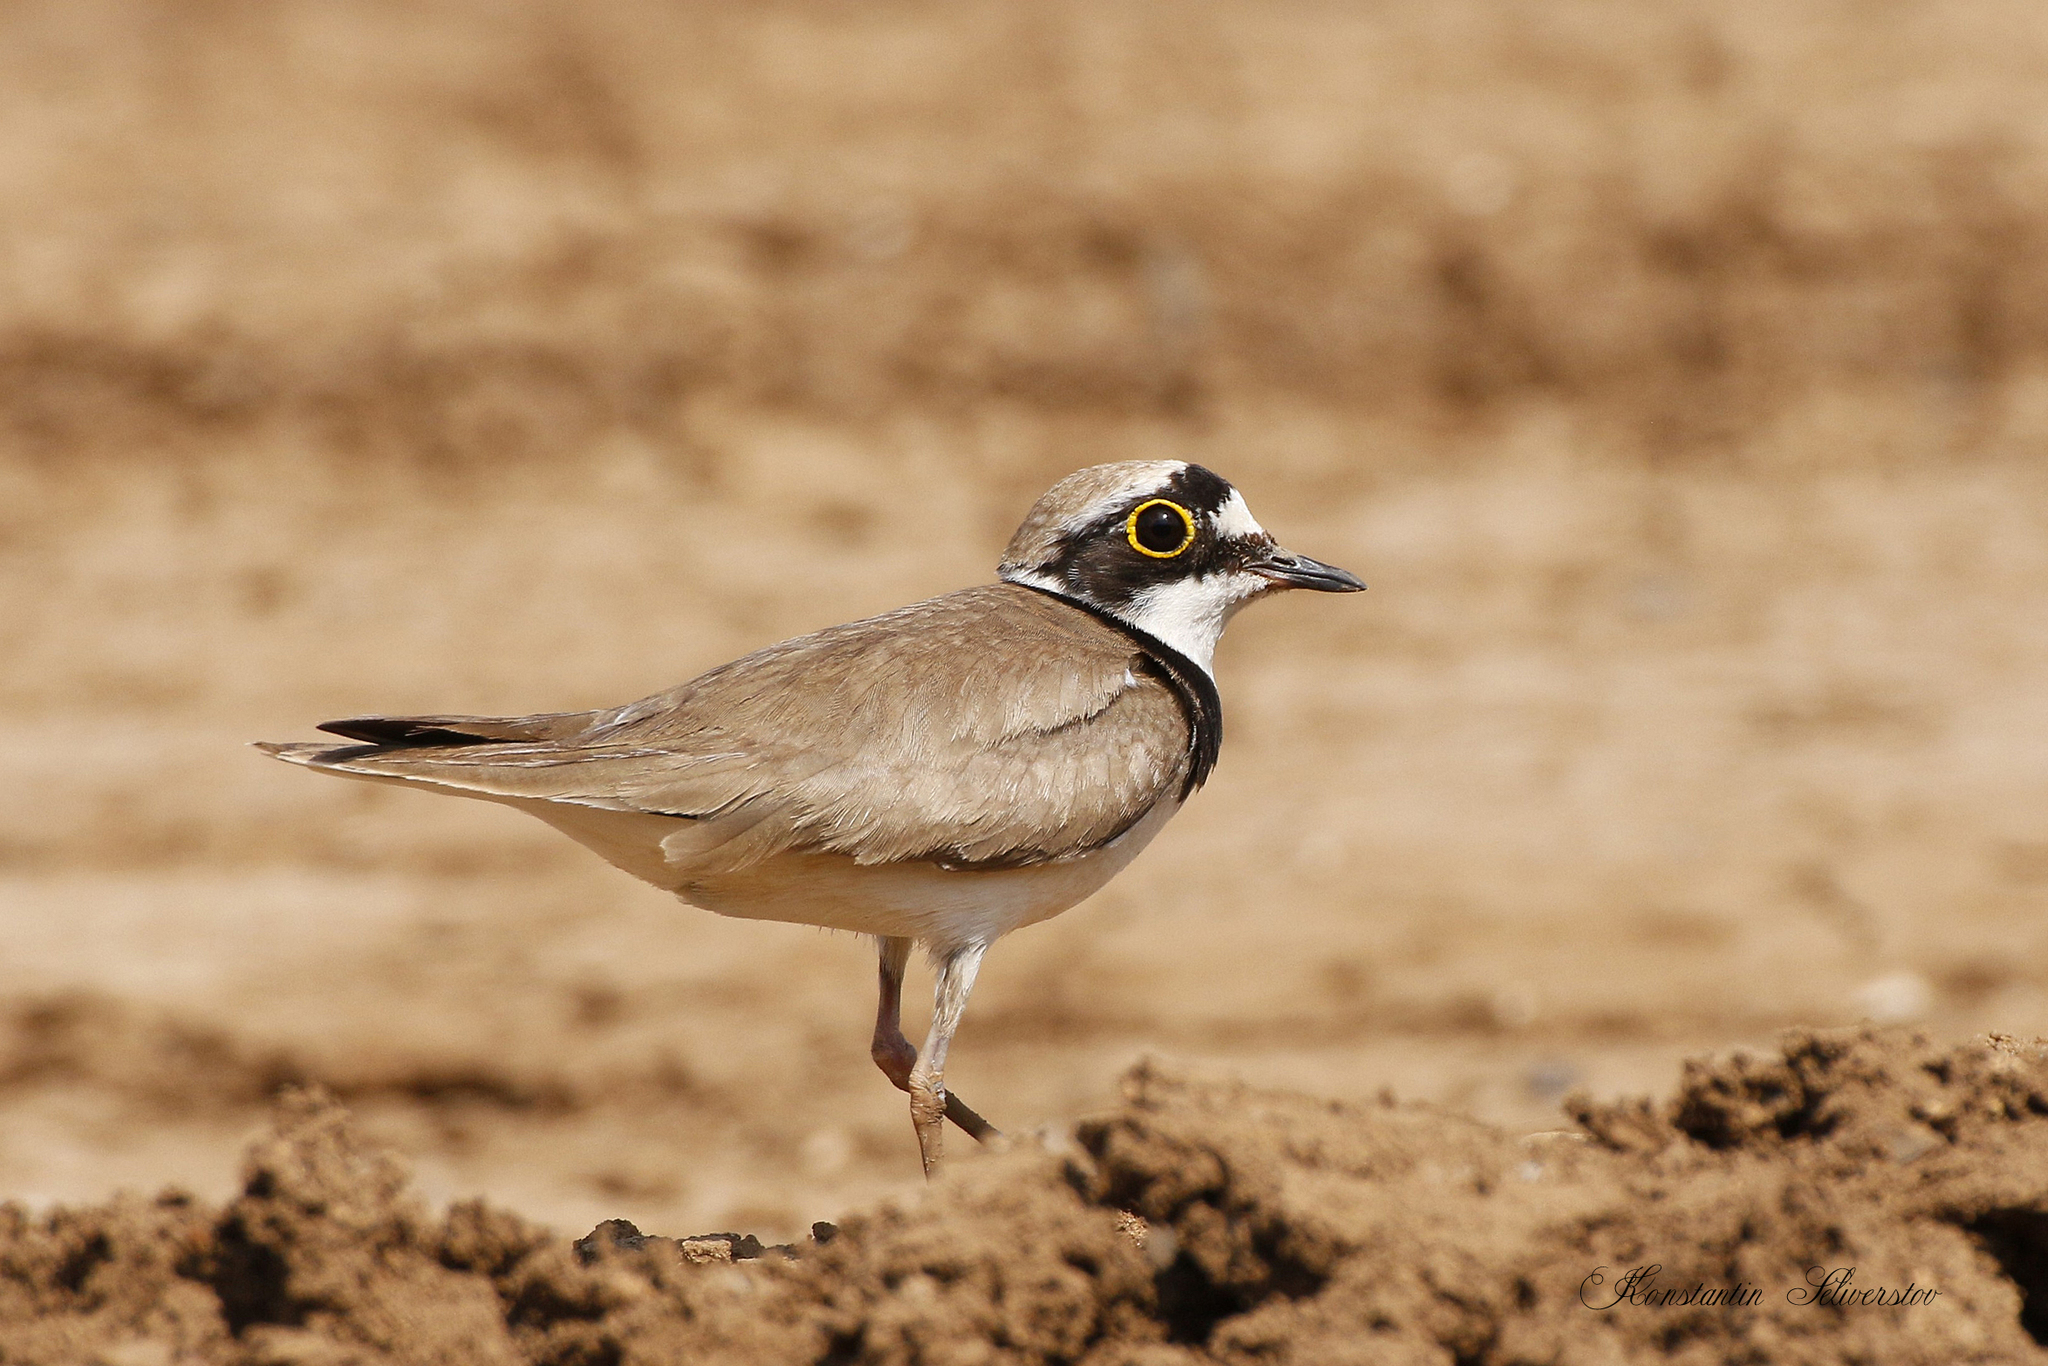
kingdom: Animalia
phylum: Chordata
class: Aves
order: Charadriiformes
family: Charadriidae
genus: Charadrius
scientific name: Charadrius dubius
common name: Little ringed plover
